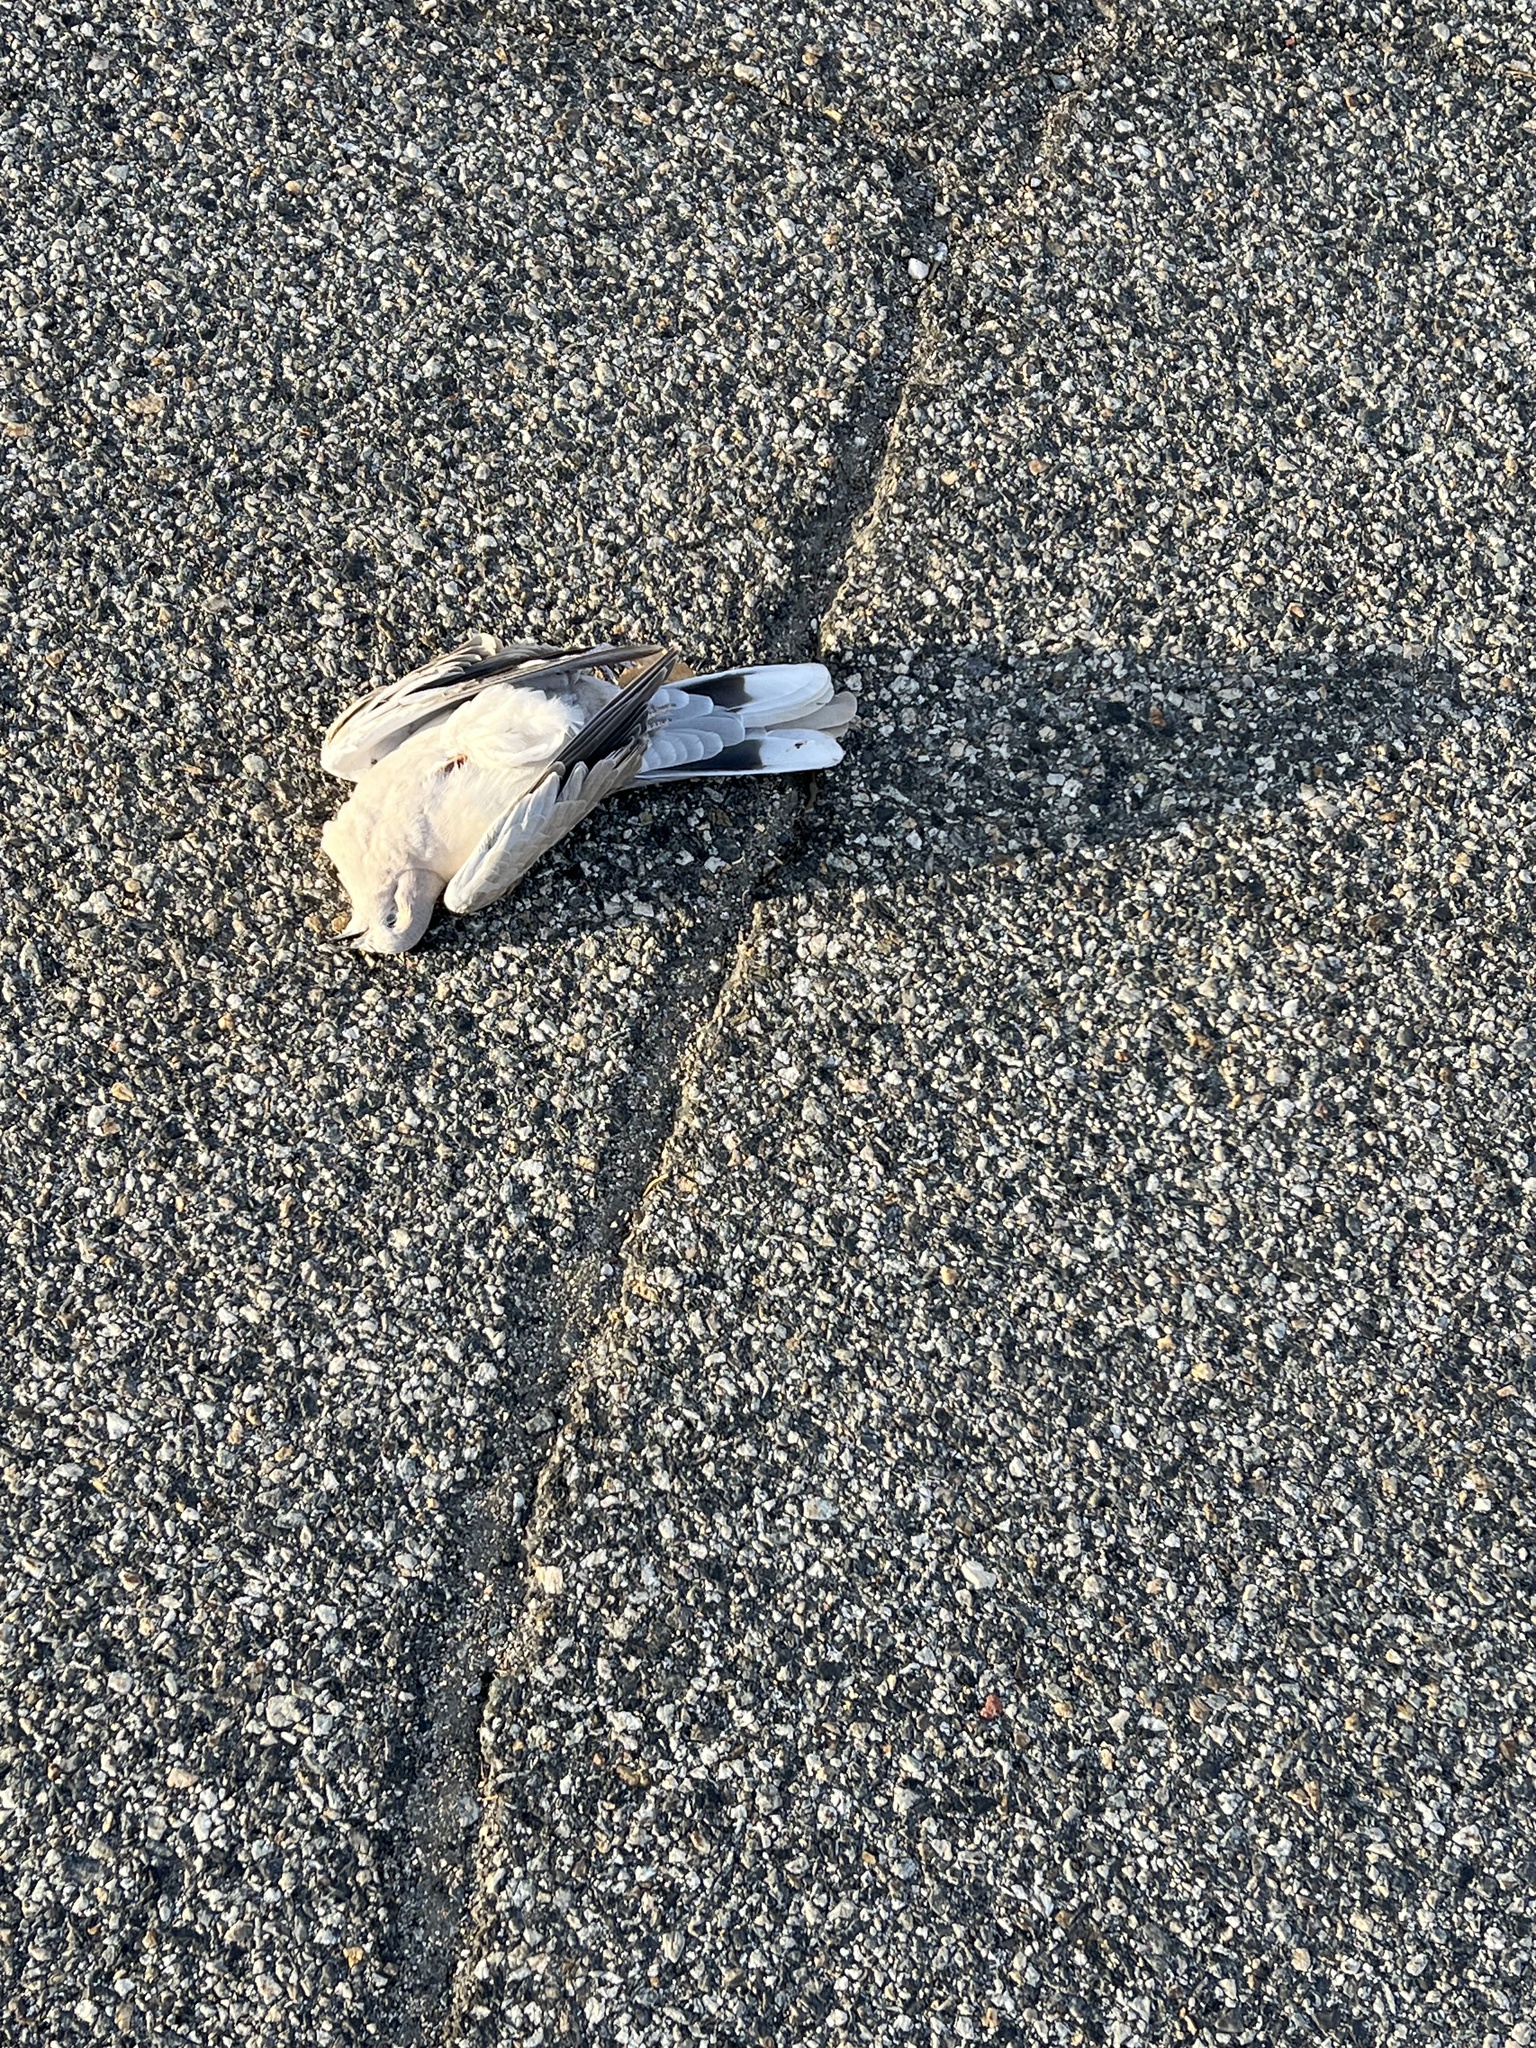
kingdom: Animalia
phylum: Chordata
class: Aves
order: Columbiformes
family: Columbidae
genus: Streptopelia
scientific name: Streptopelia decaocto
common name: Eurasian collared dove
